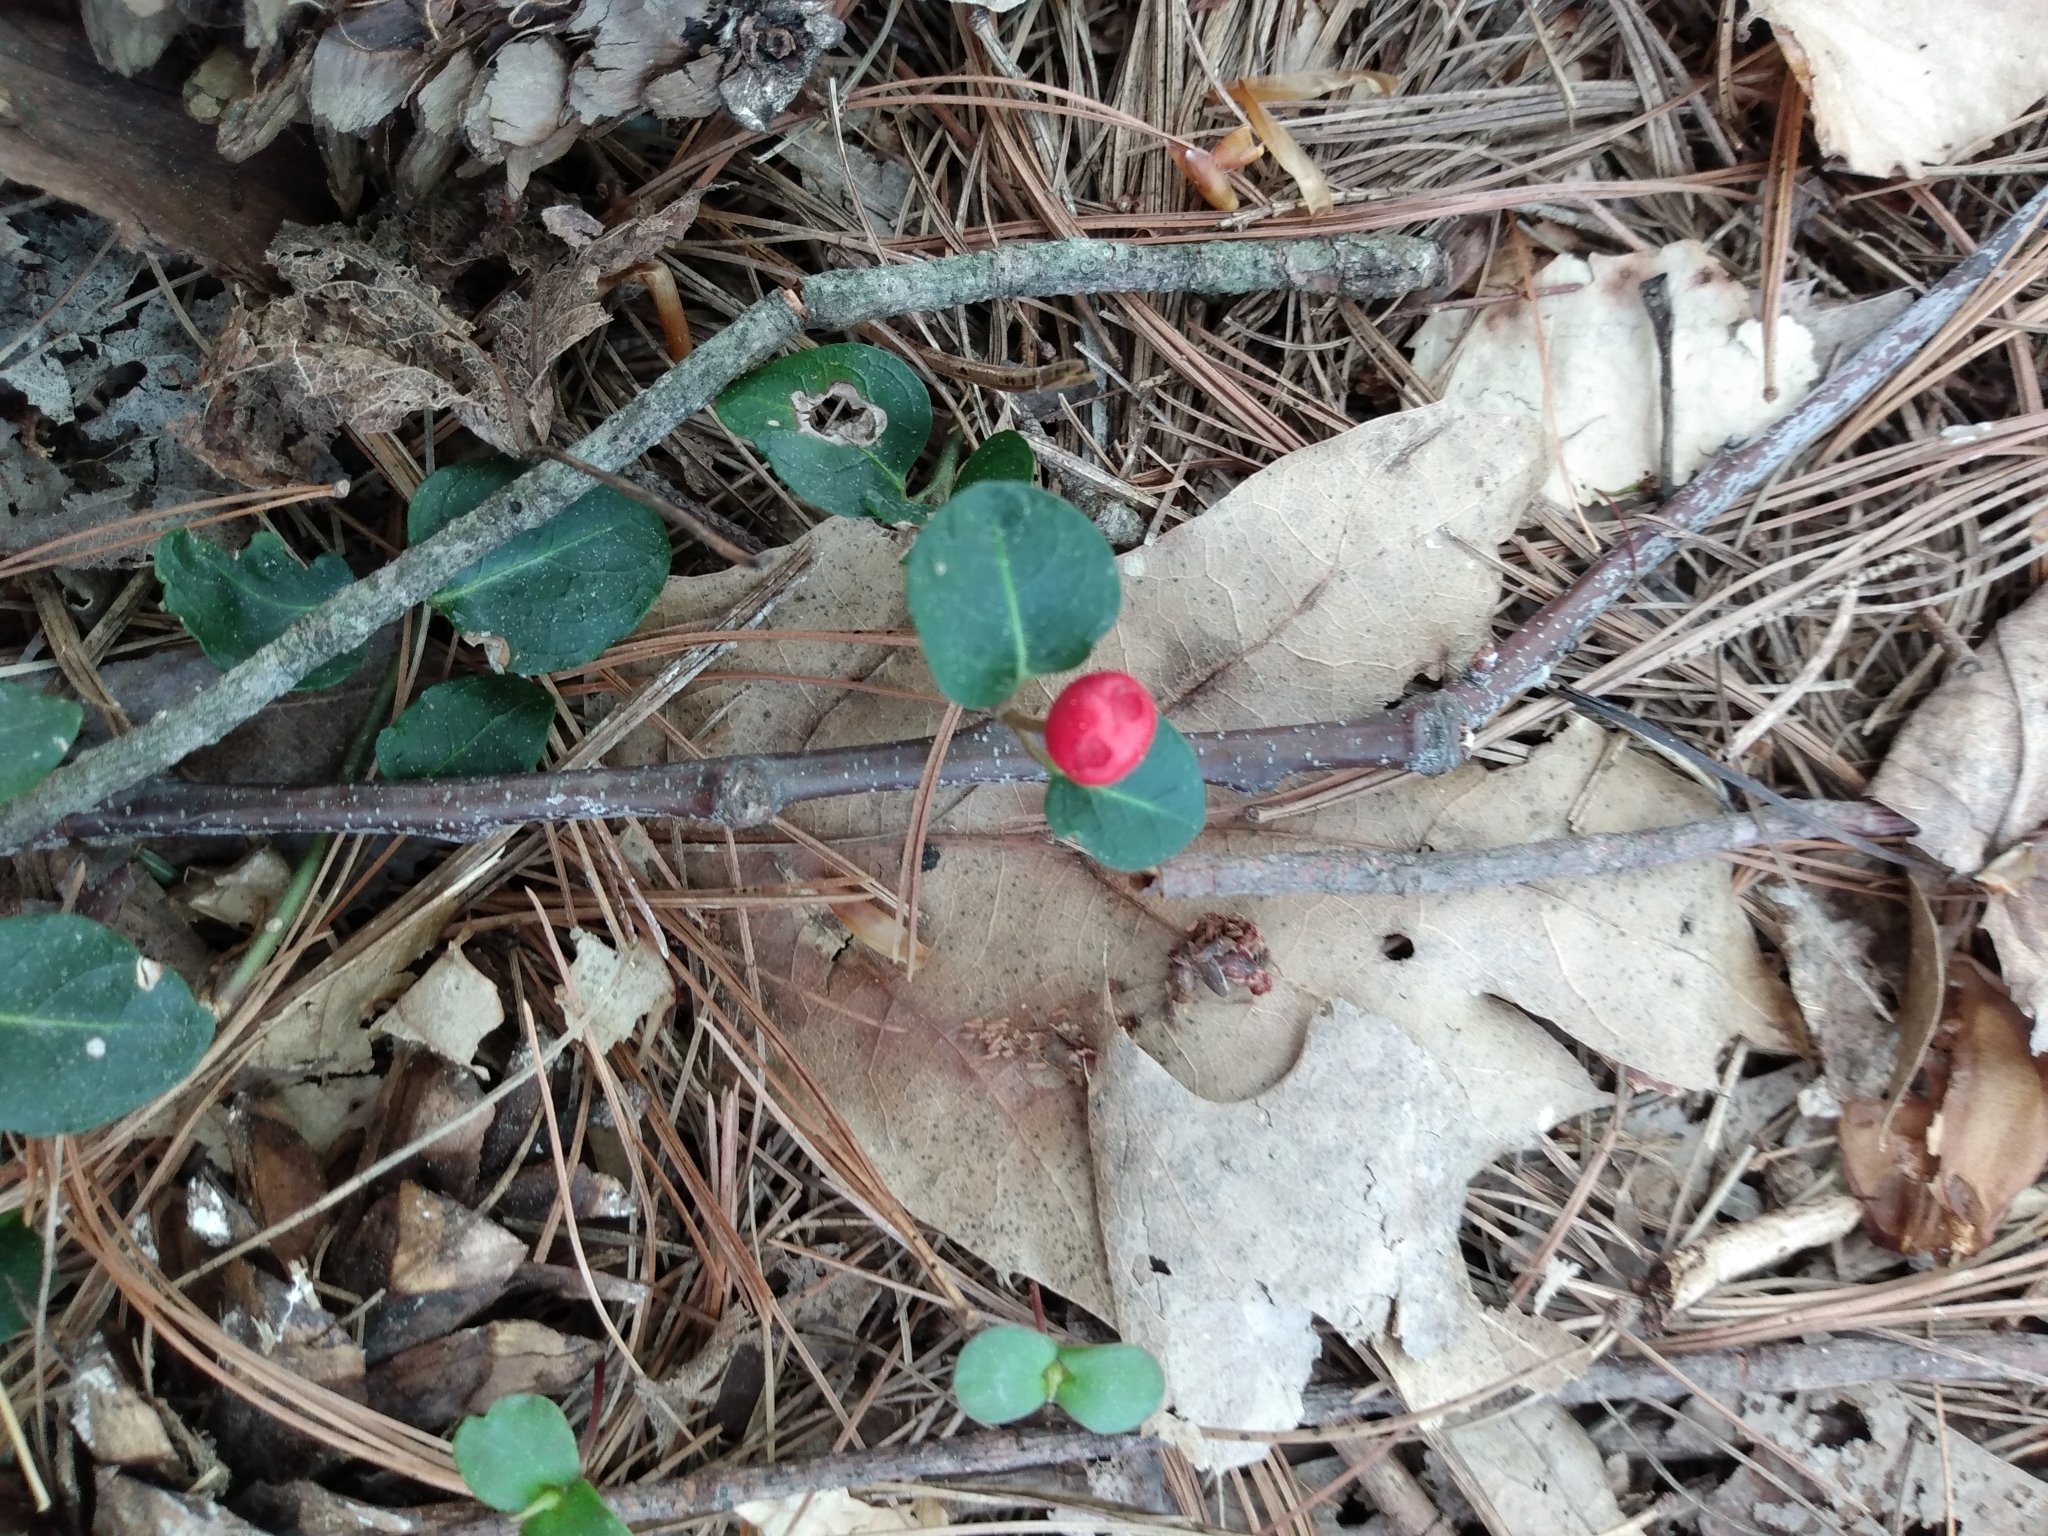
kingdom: Plantae
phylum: Tracheophyta
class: Magnoliopsida
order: Gentianales
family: Rubiaceae
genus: Mitchella
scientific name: Mitchella repens
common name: Partridge-berry
